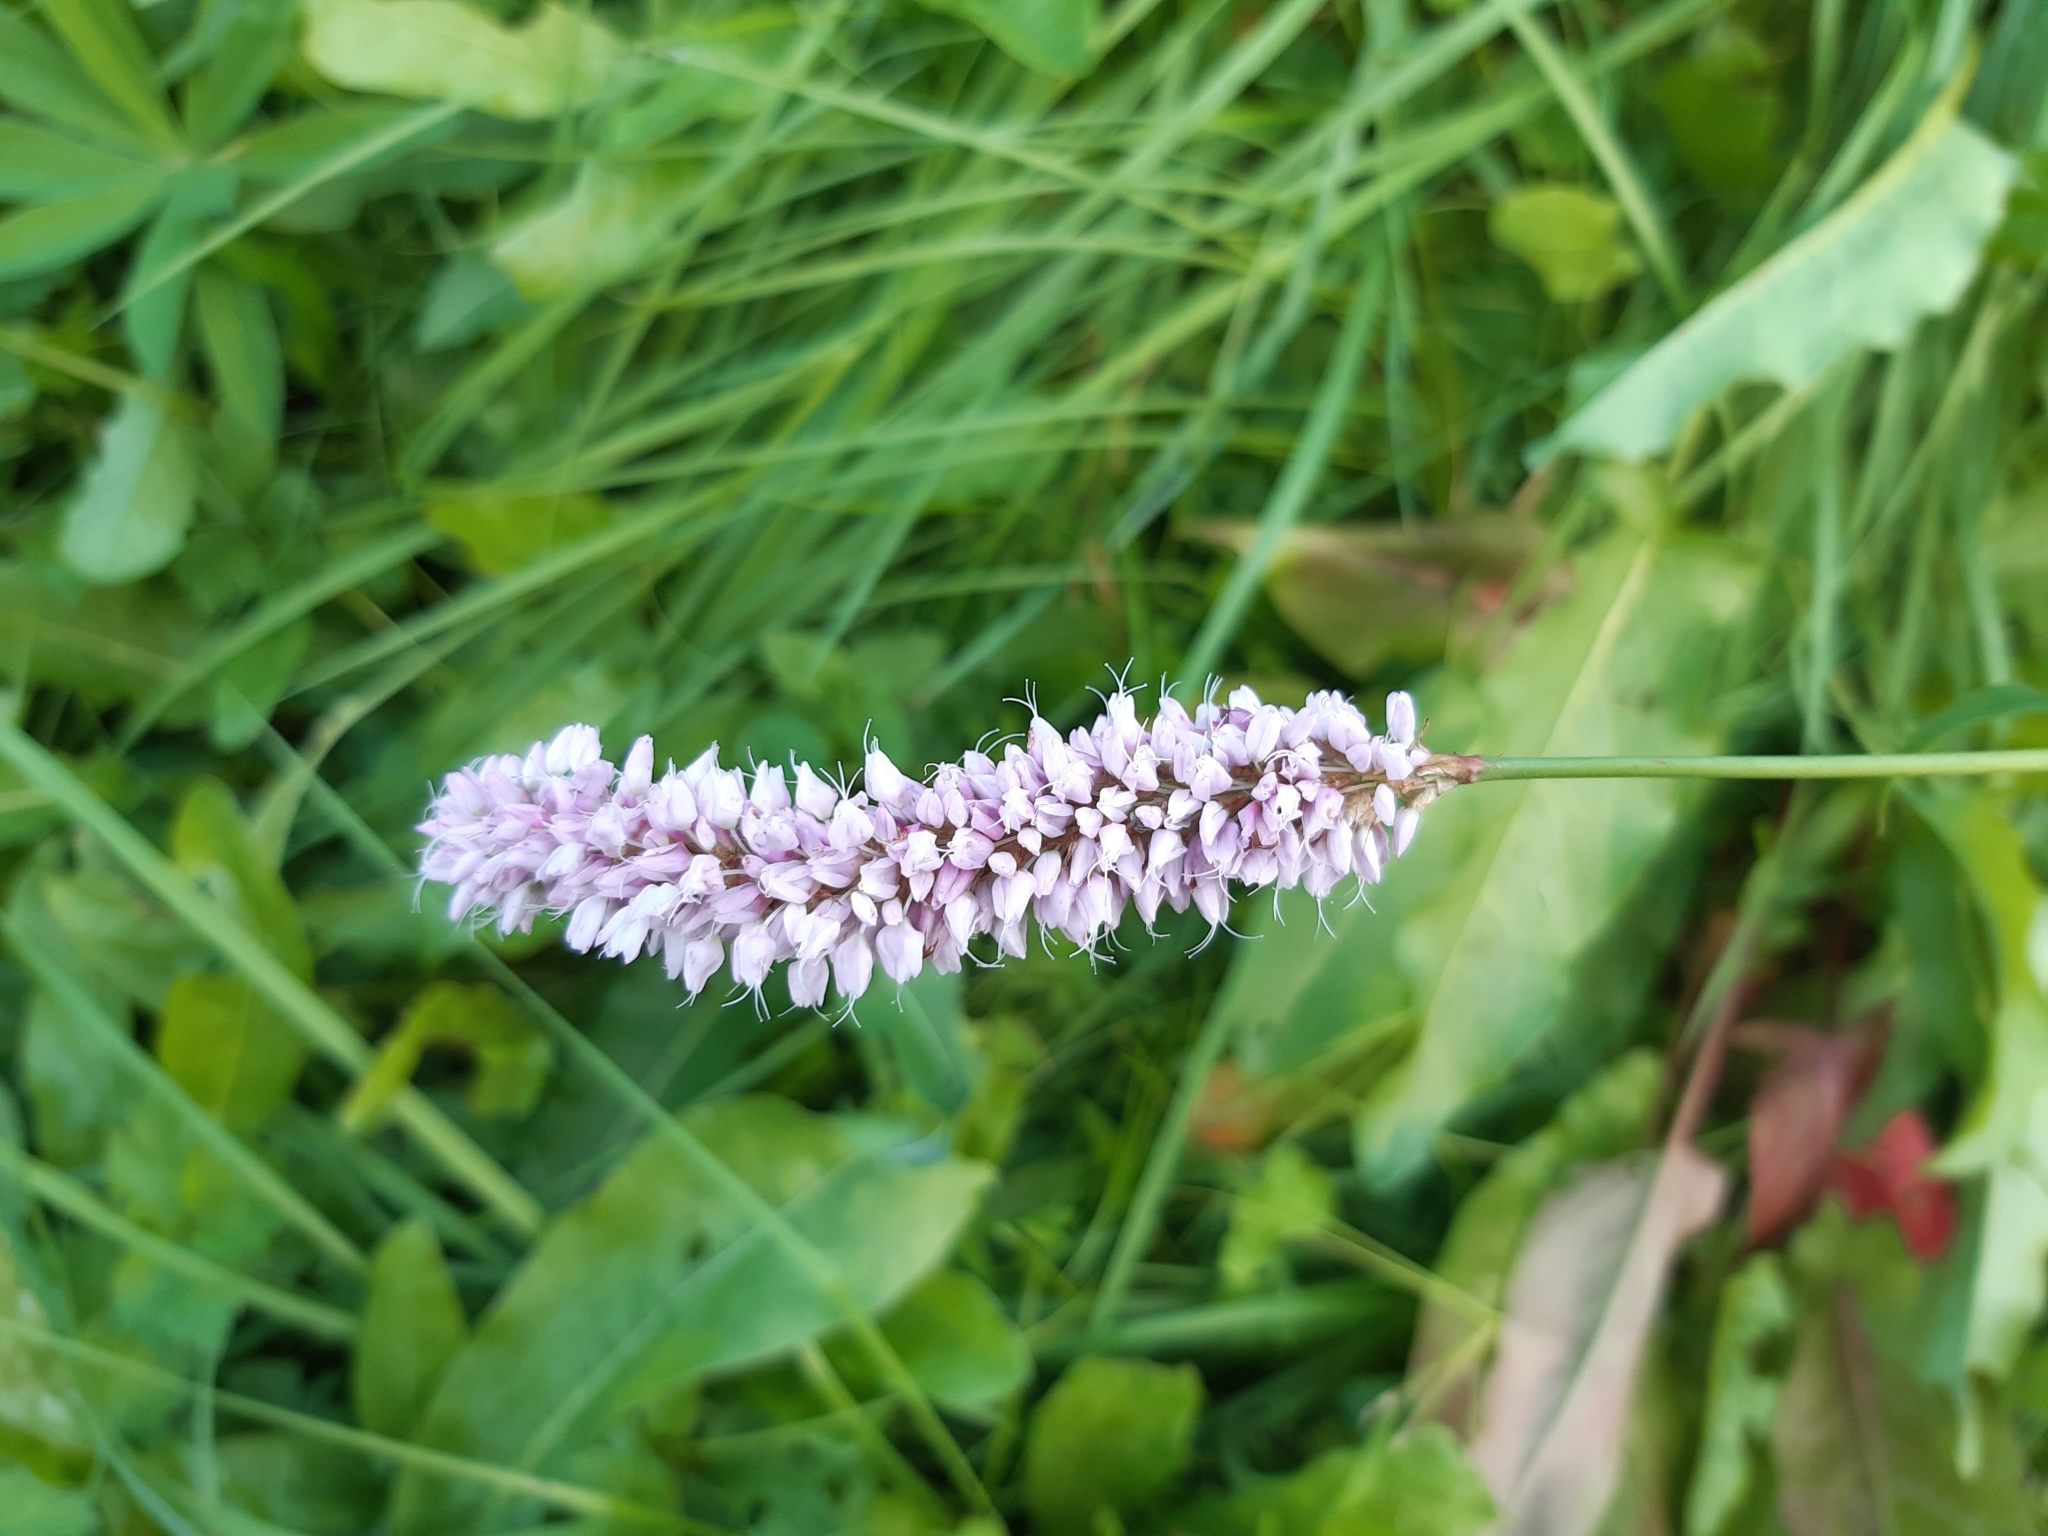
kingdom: Plantae
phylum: Tracheophyta
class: Magnoliopsida
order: Caryophyllales
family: Polygonaceae
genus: Bistorta
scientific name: Bistorta officinalis
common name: Common bistort
